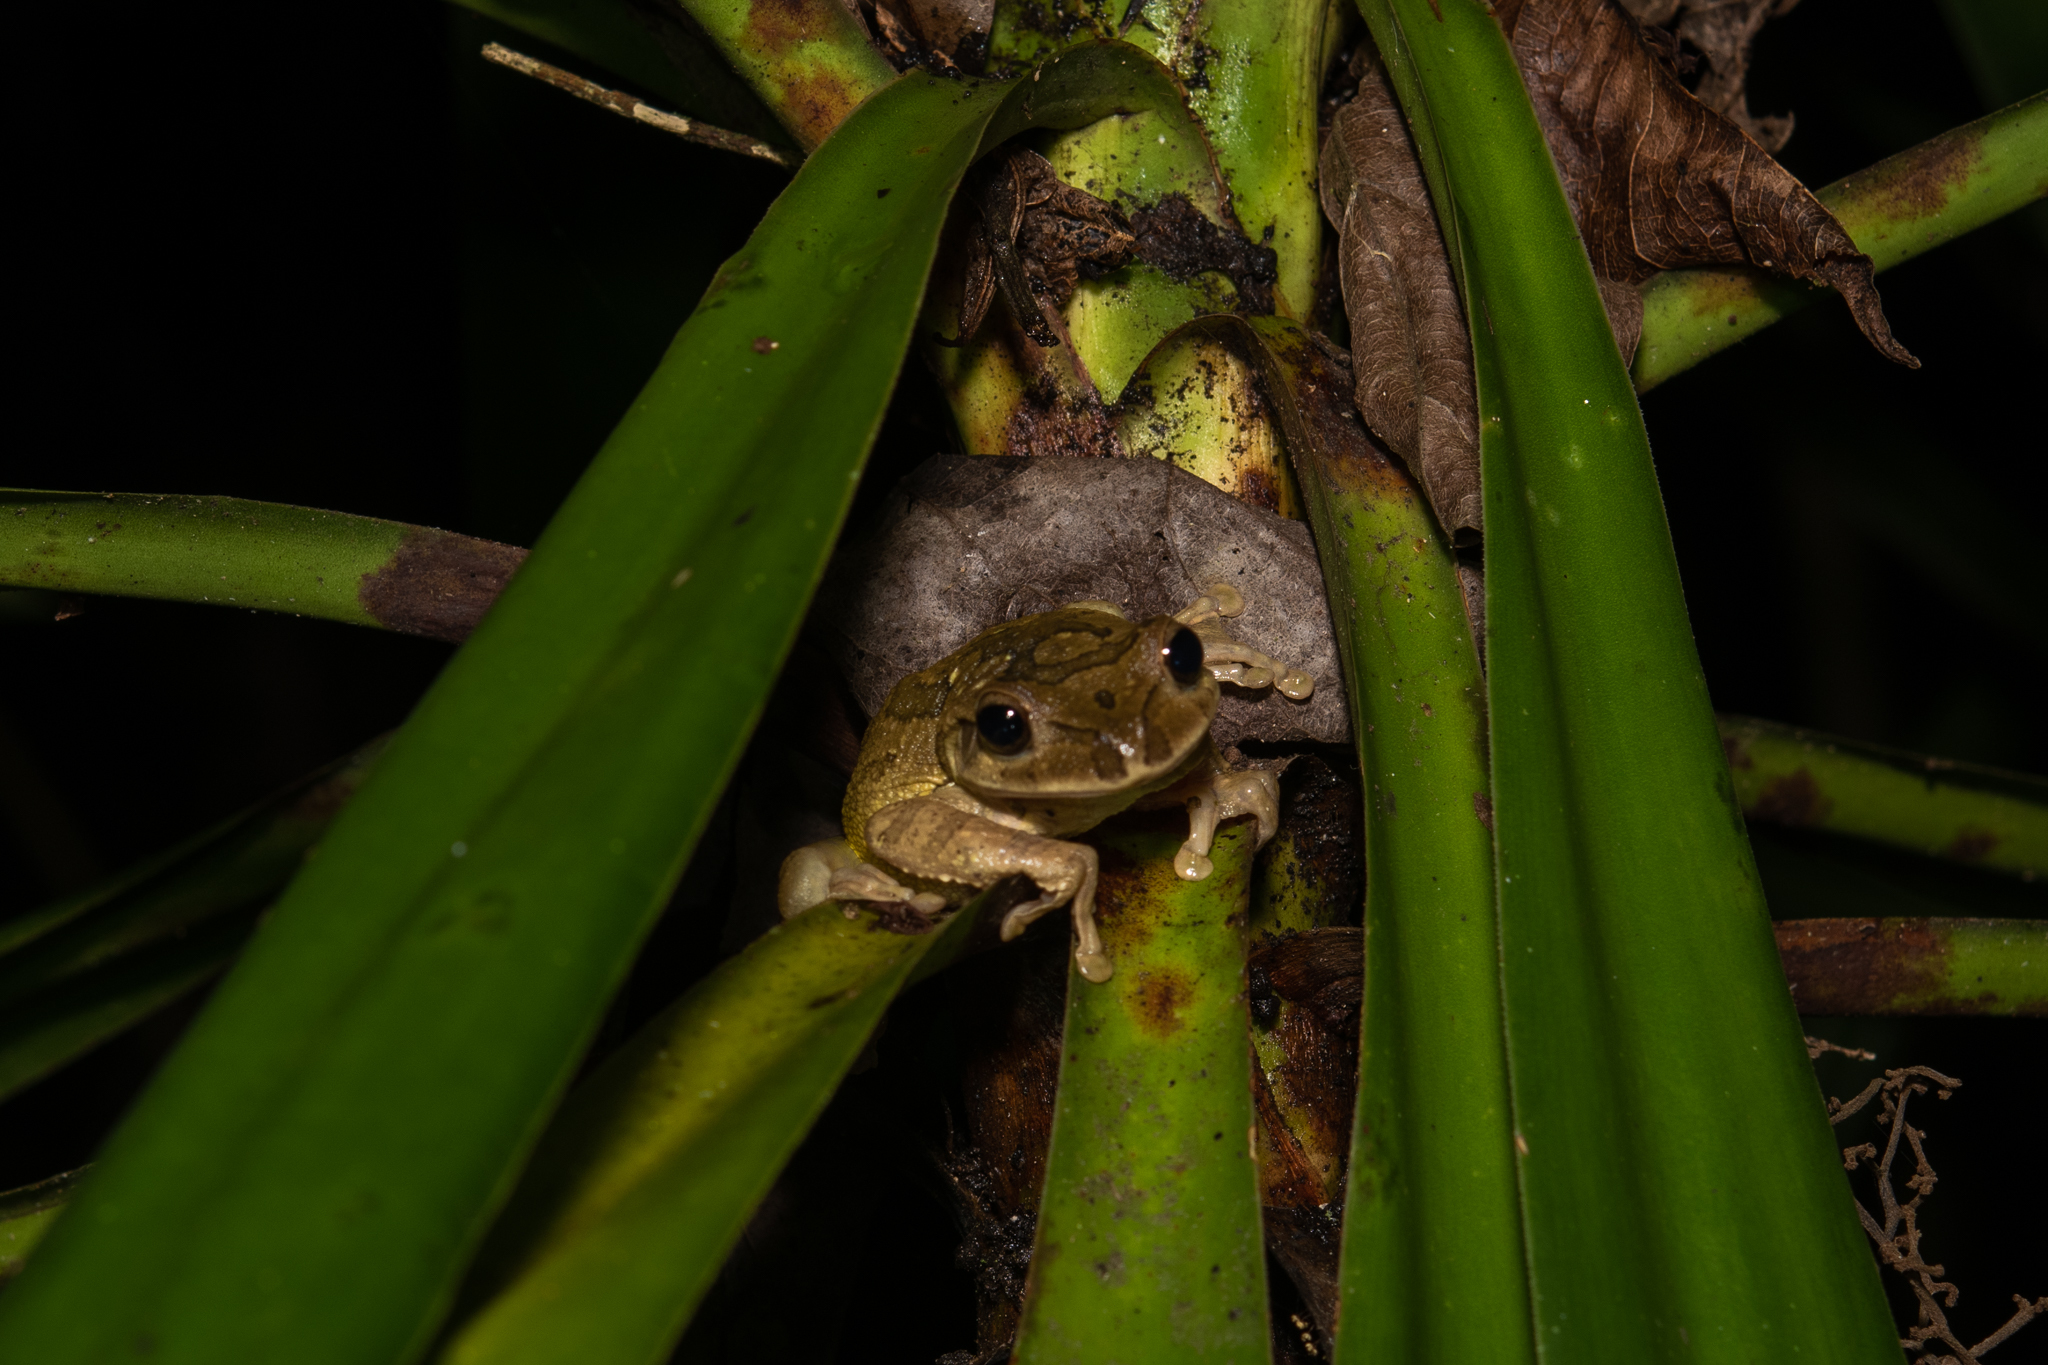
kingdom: Animalia
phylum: Chordata
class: Amphibia
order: Anura
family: Hylidae
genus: Smilisca
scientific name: Smilisca baudinii
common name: Mexican smilisca
